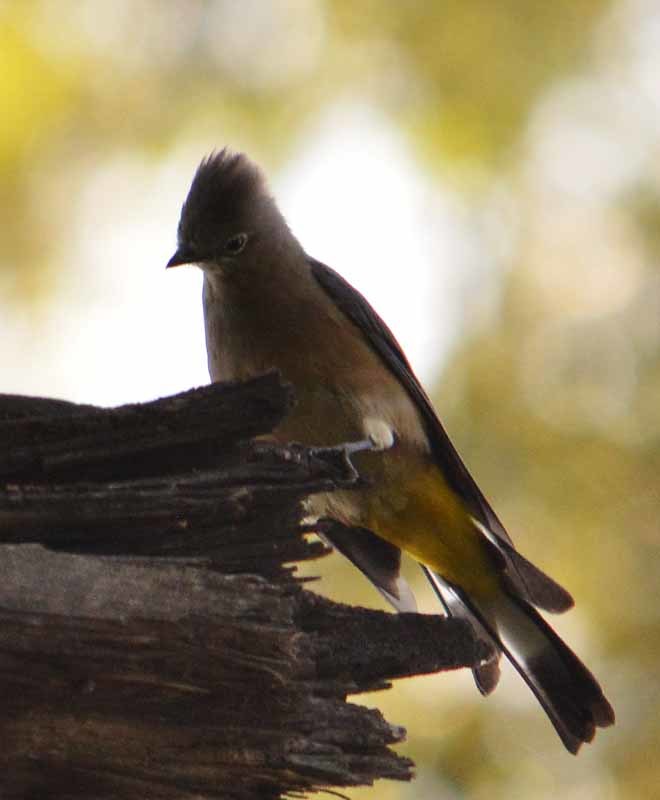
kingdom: Animalia
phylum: Chordata
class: Aves
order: Passeriformes
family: Ptilogonatidae
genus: Ptilogonys
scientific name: Ptilogonys cinereus
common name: Gray silky-flycatcher
